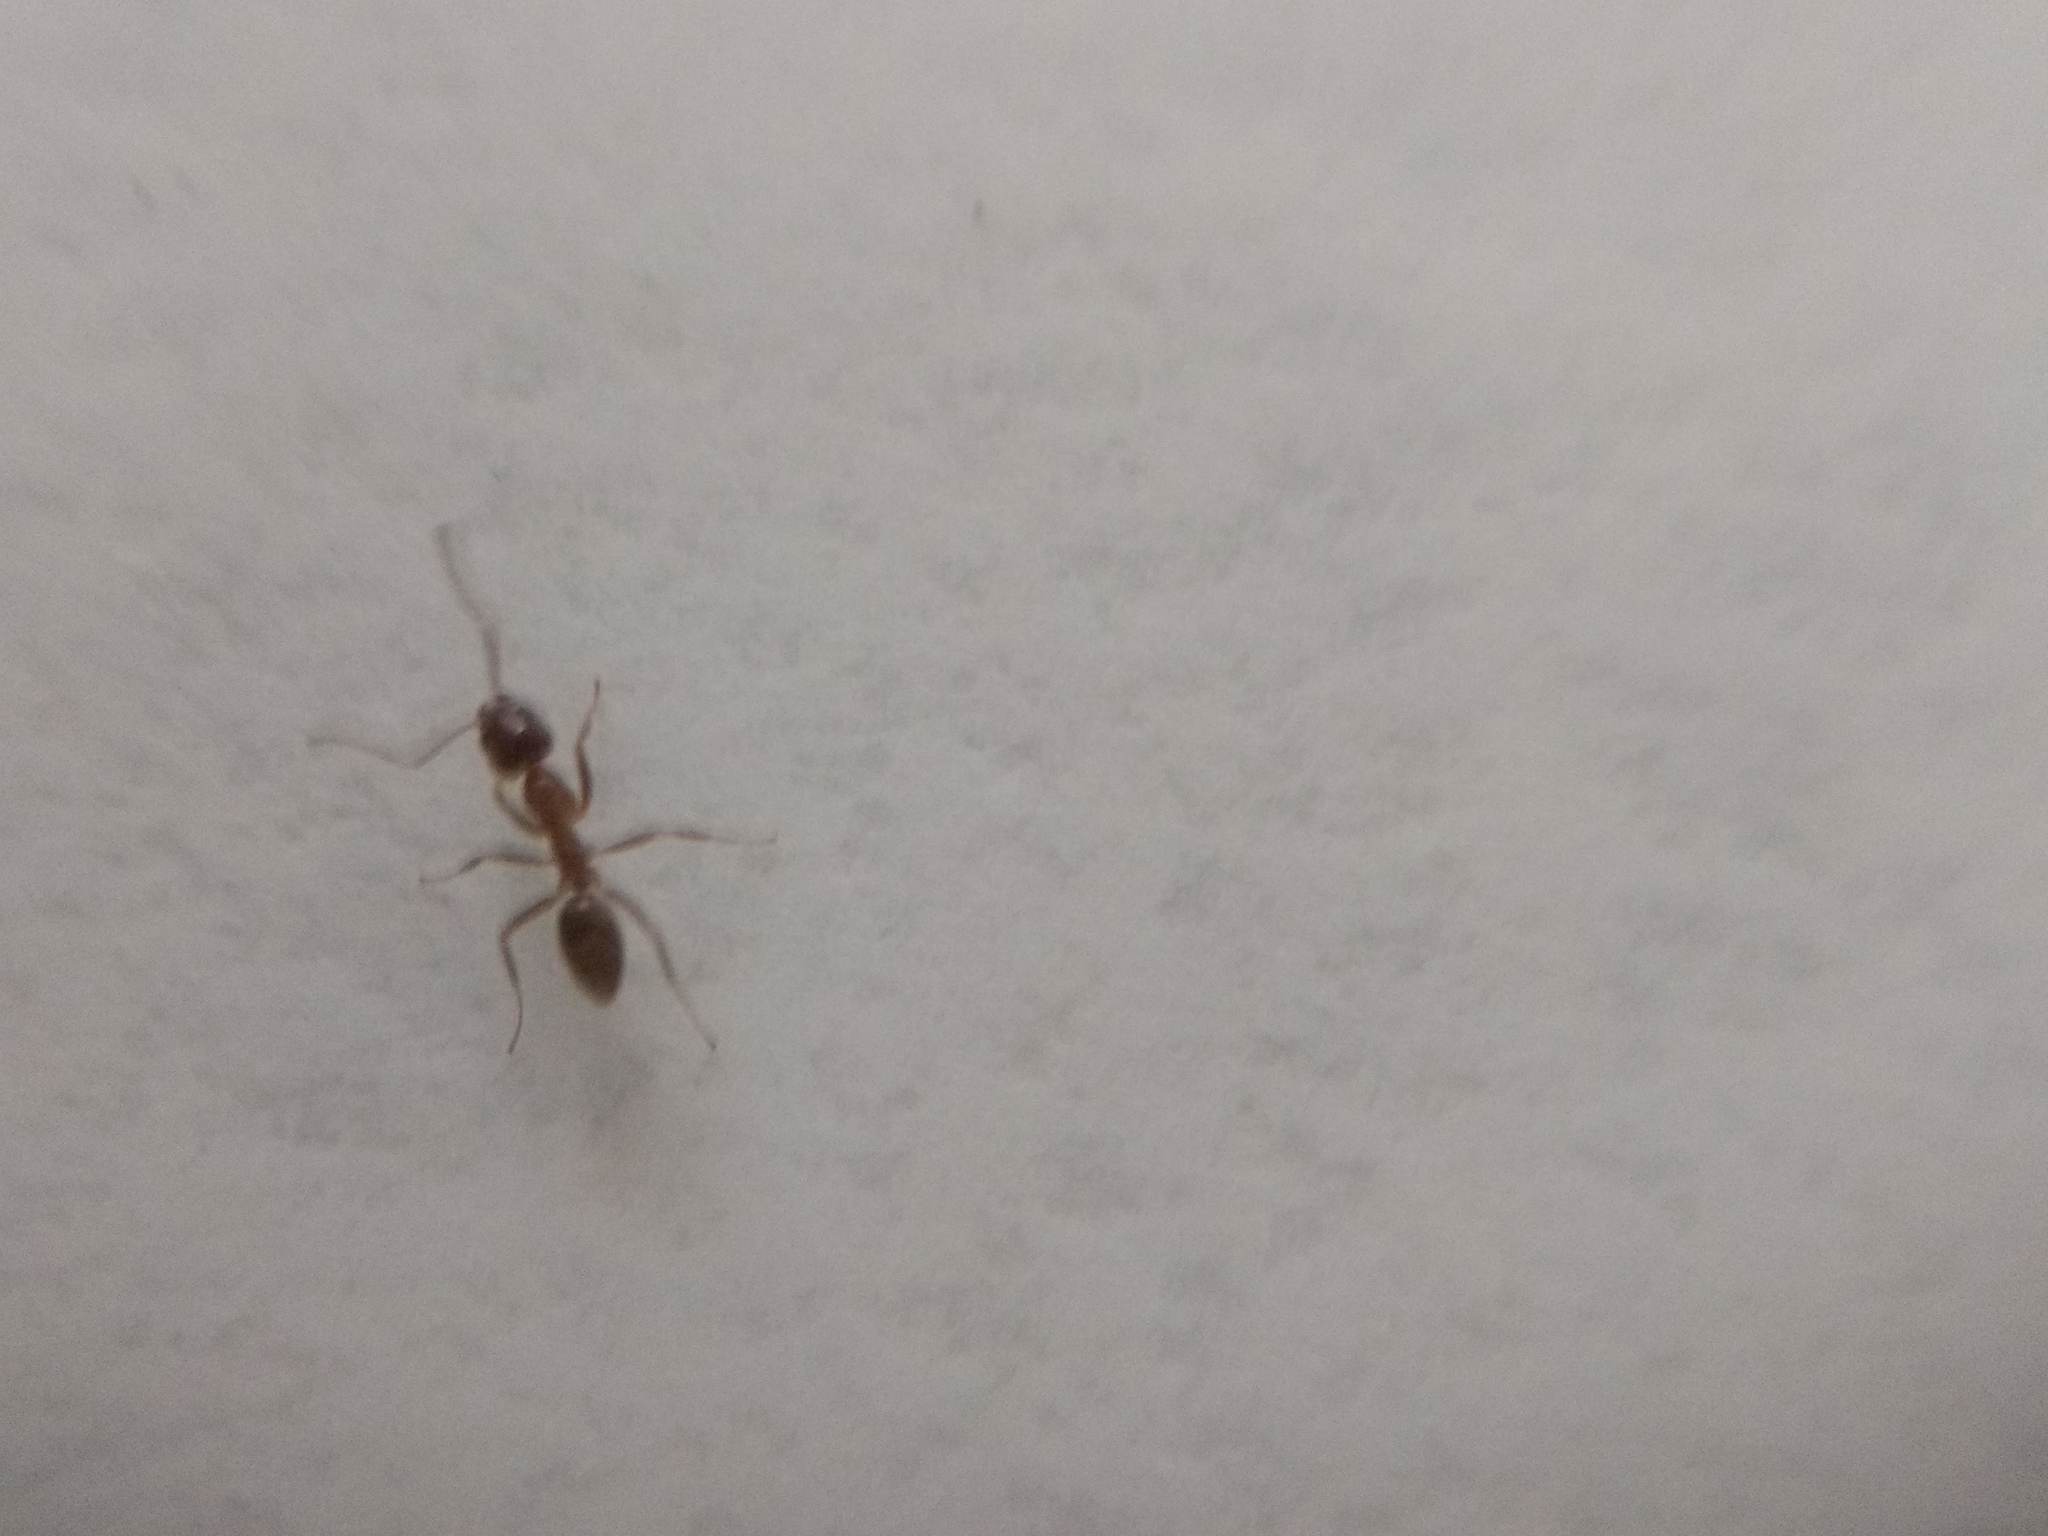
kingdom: Animalia
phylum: Arthropoda
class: Insecta
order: Hymenoptera
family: Formicidae
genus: Linepithema
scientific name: Linepithema humile
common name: Argentine ant
